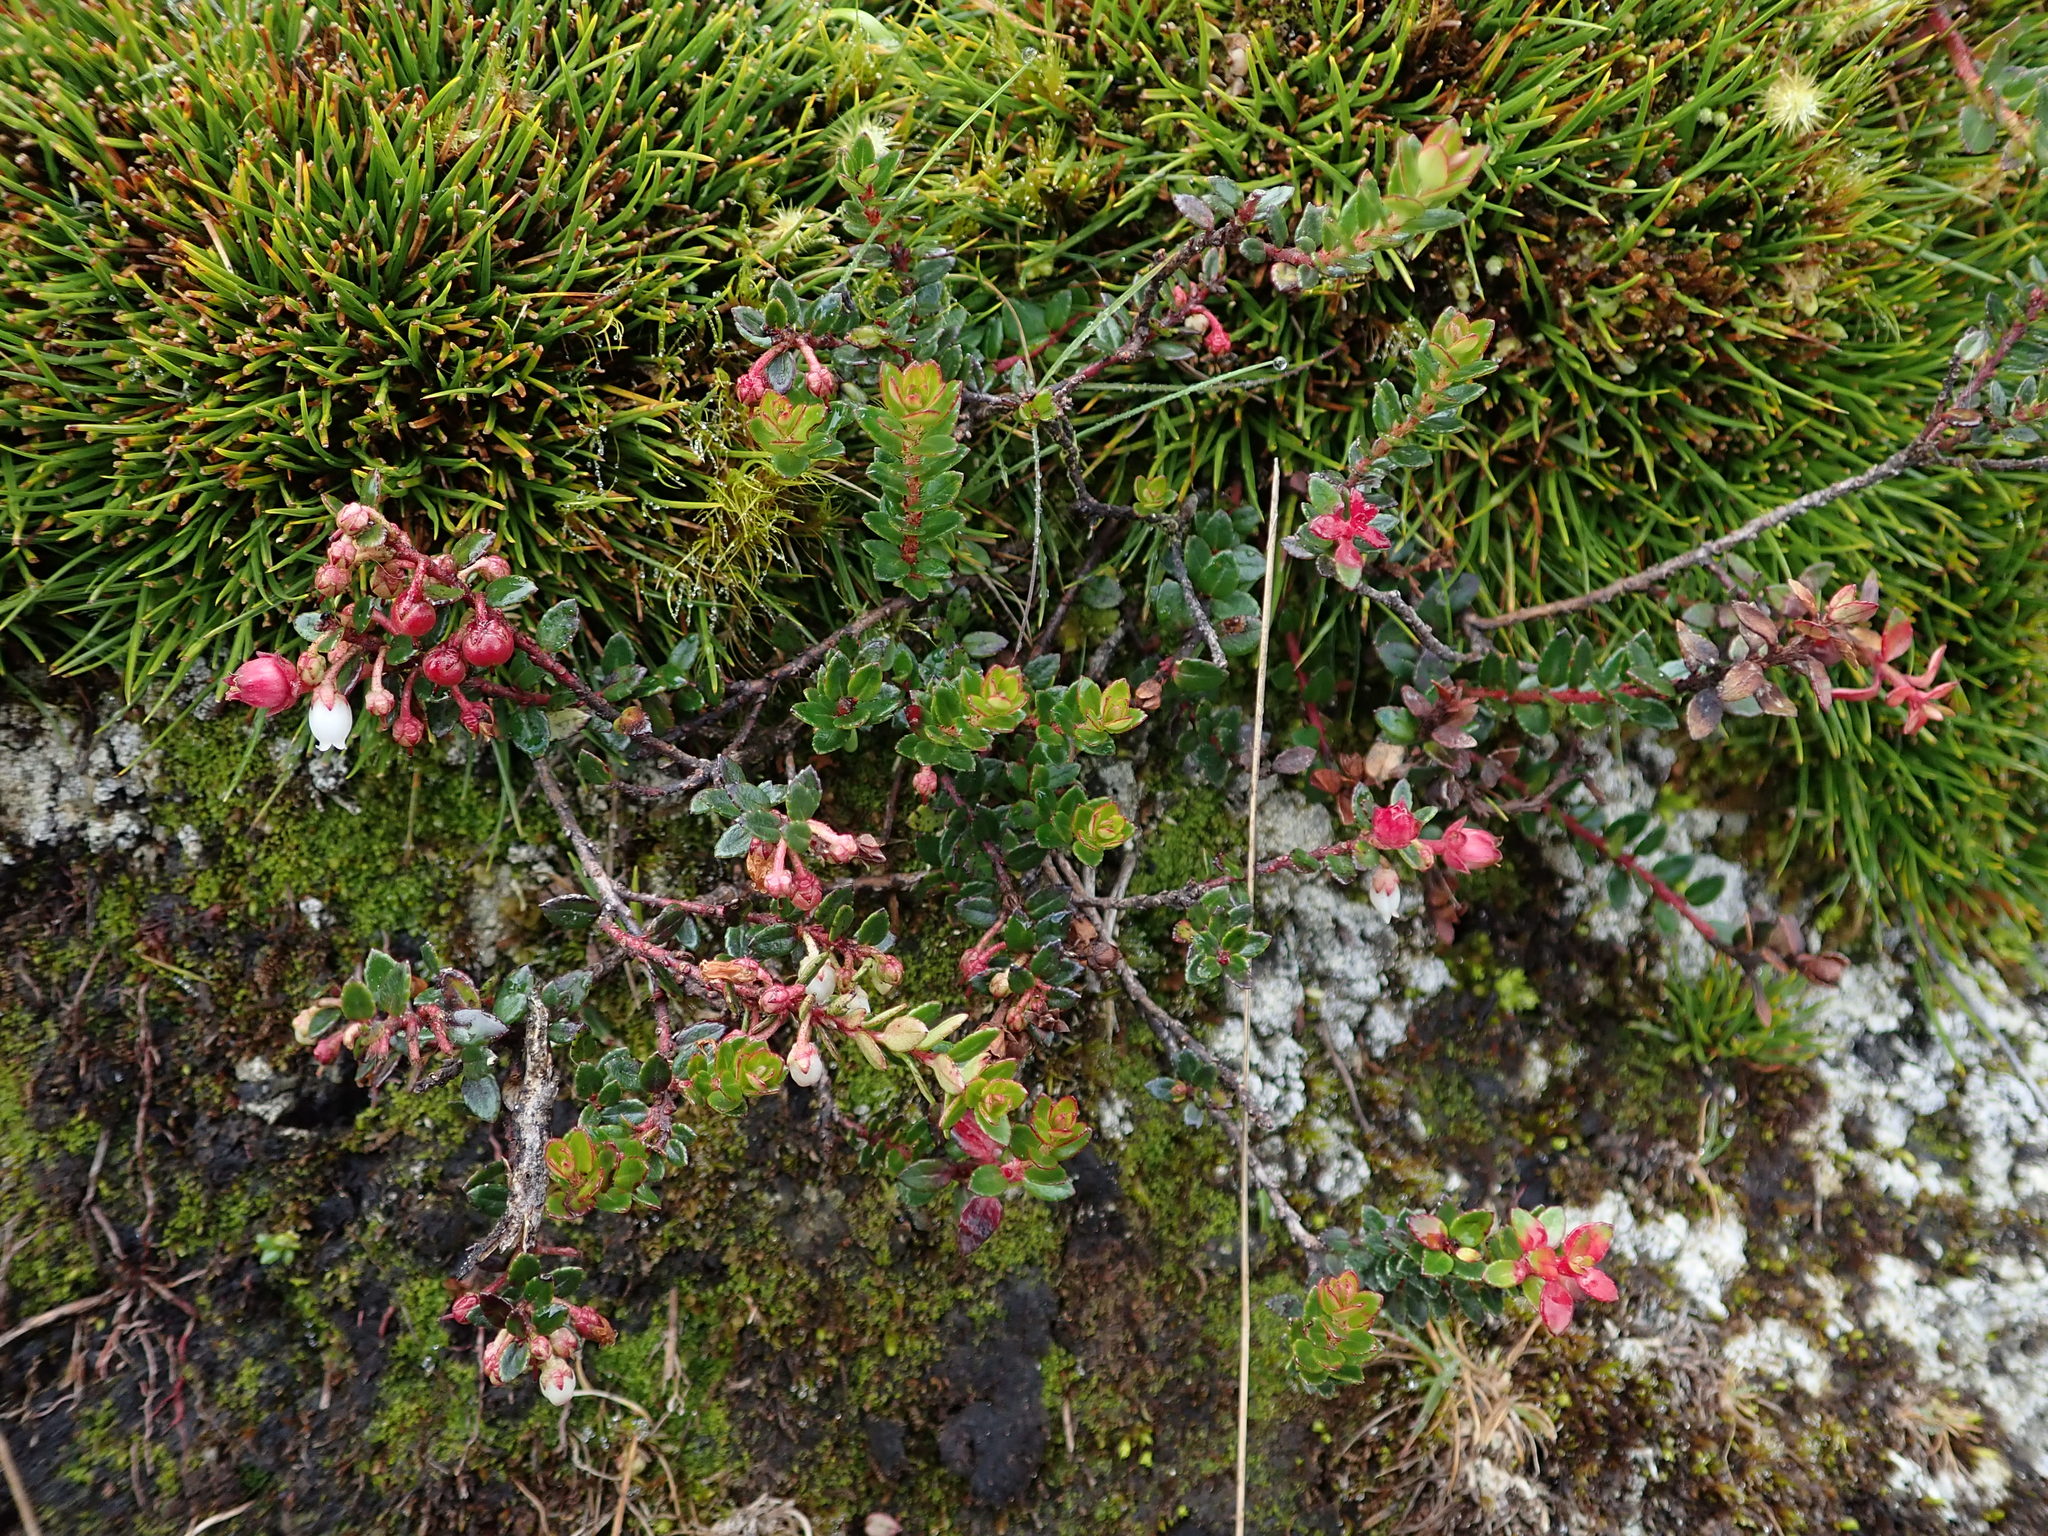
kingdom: Plantae
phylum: Tracheophyta
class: Magnoliopsida
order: Ericales
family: Ericaceae
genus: Gaultheria
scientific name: Gaultheria myrsinoides
